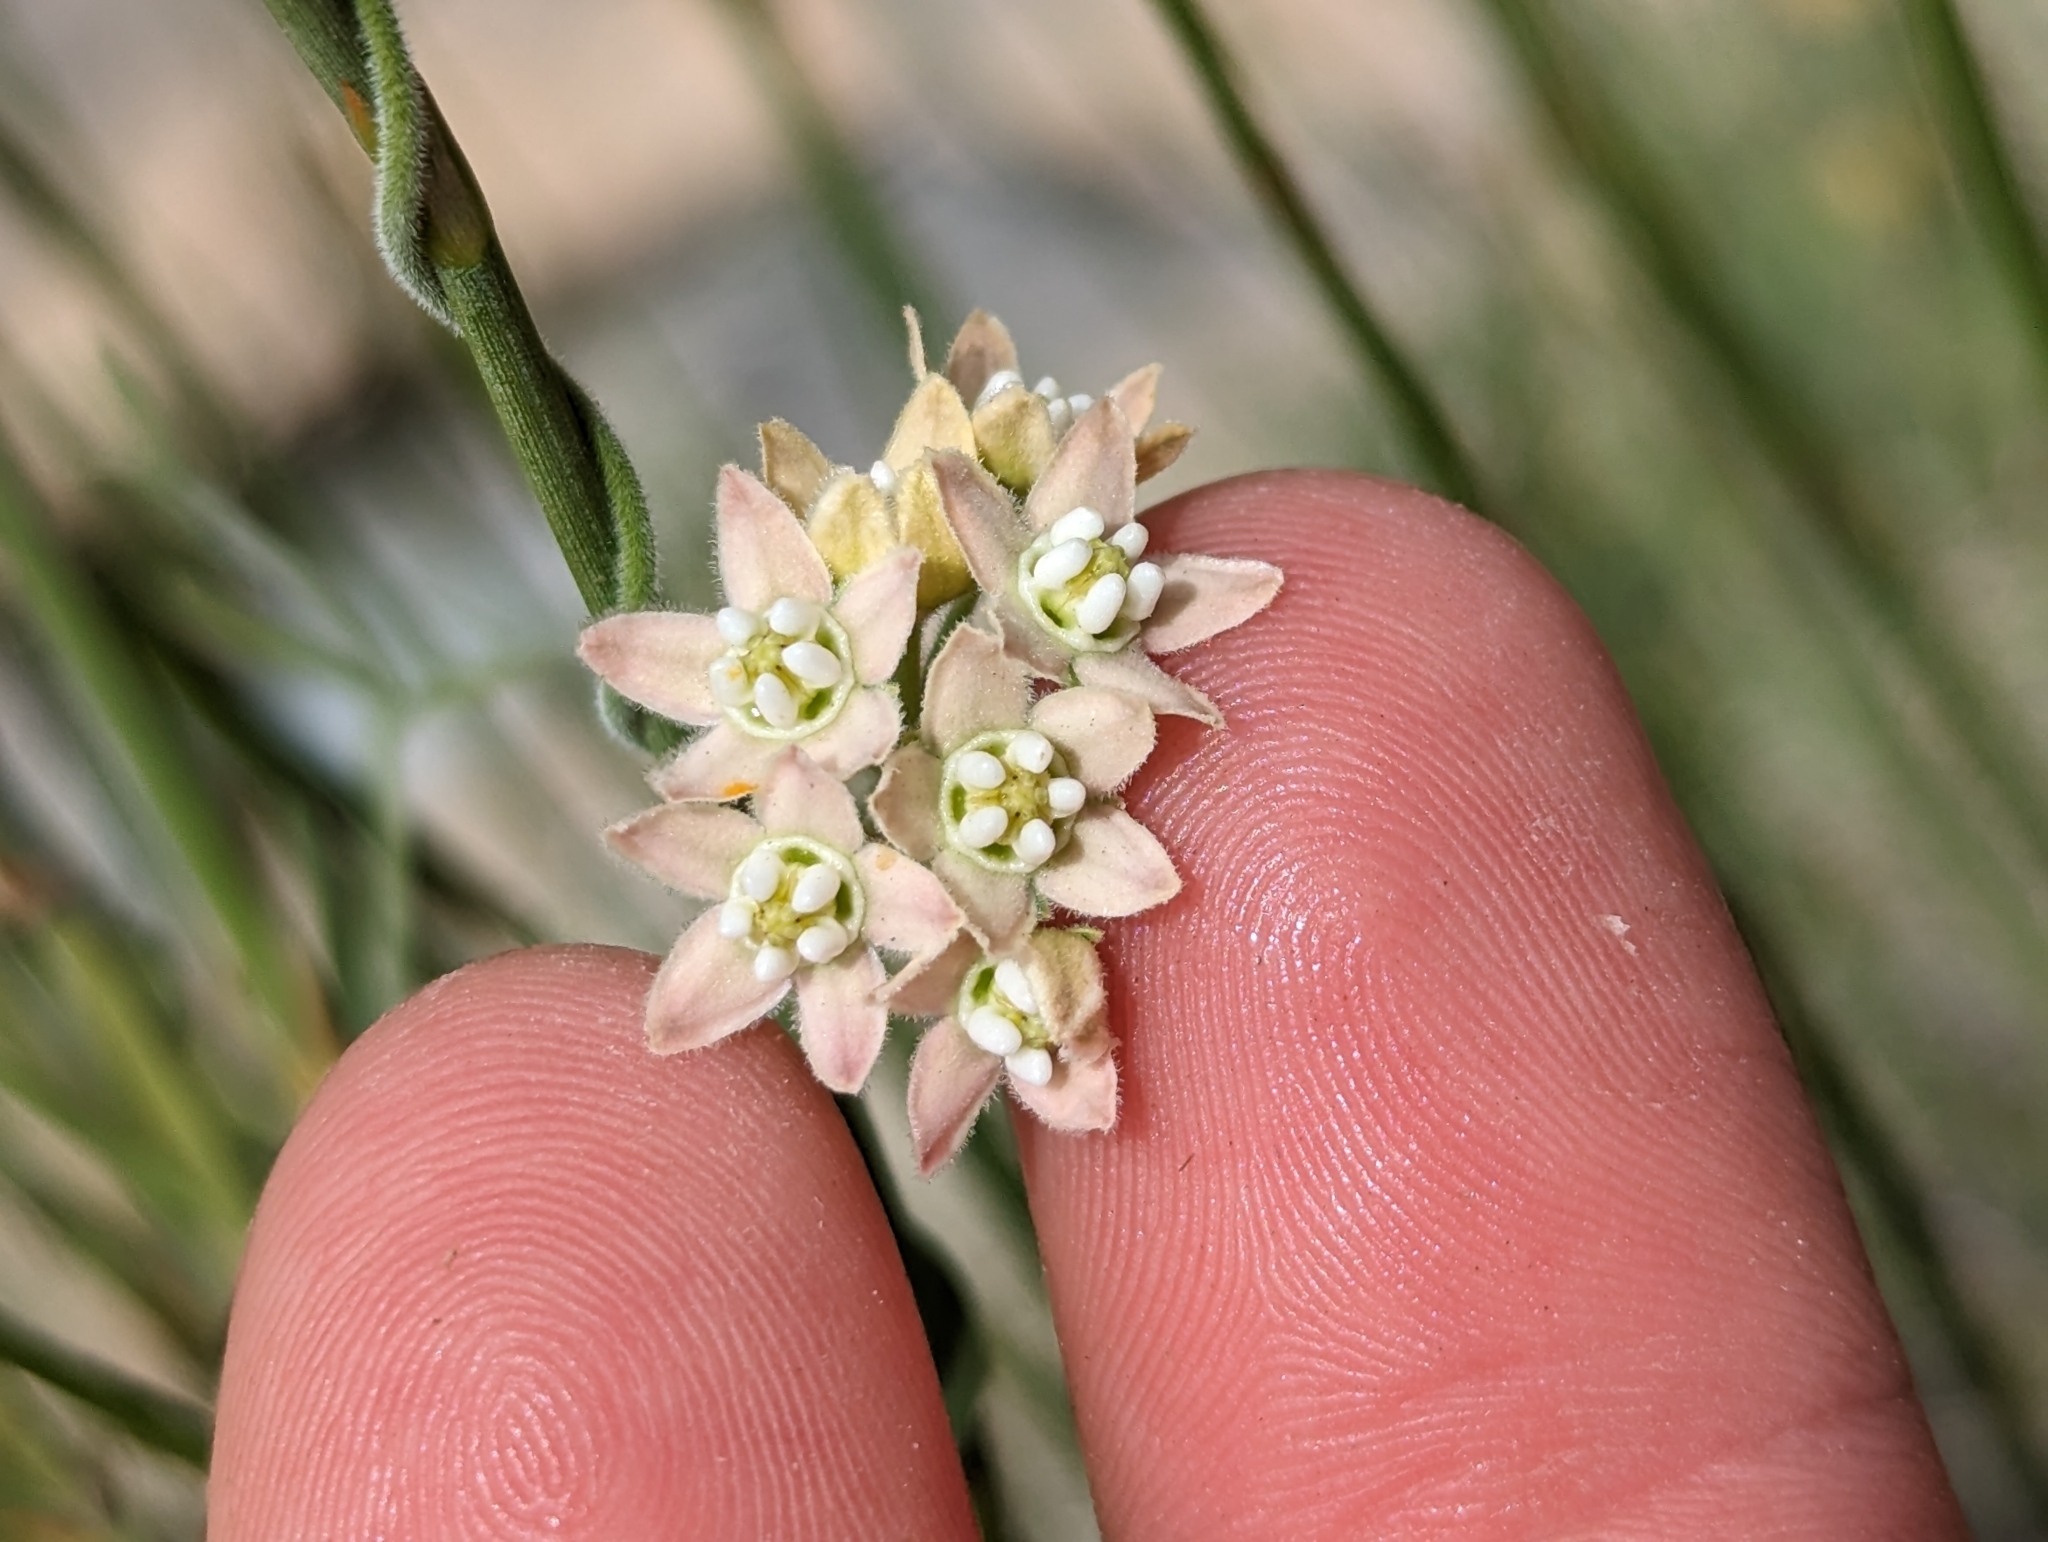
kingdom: Plantae
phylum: Tracheophyta
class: Magnoliopsida
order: Gentianales
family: Apocynaceae
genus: Funastrum
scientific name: Funastrum hirtellum
